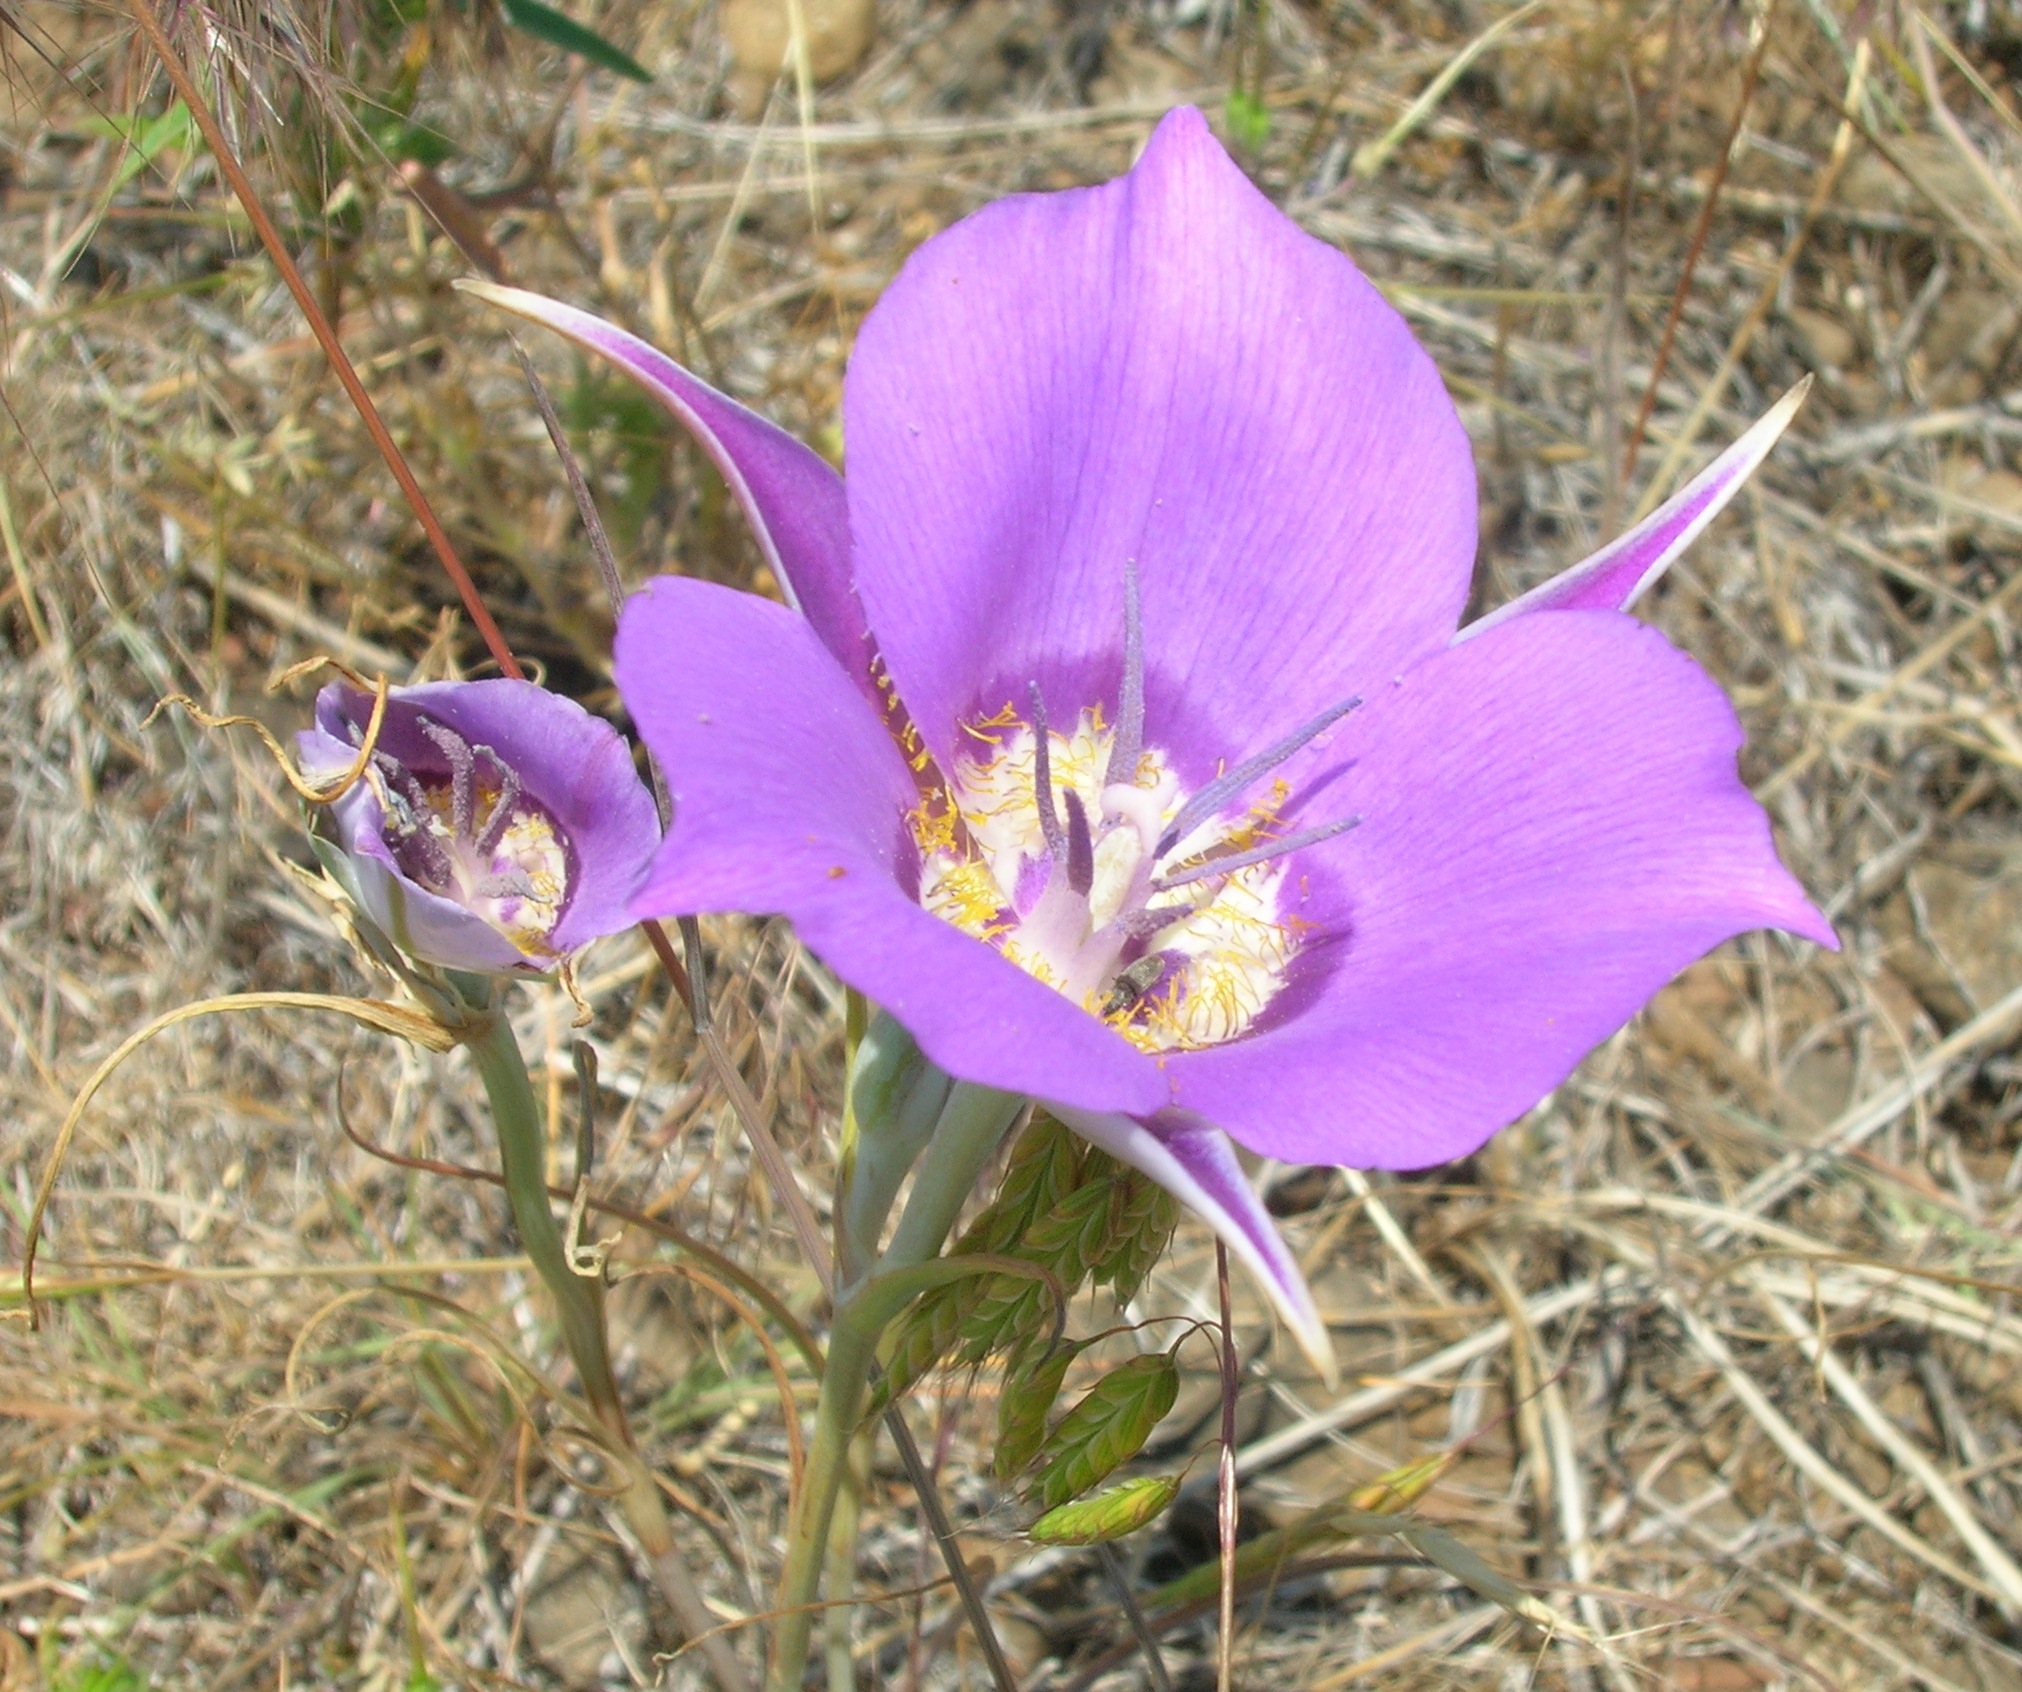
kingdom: Plantae
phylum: Tracheophyta
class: Liliopsida
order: Liliales
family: Liliaceae
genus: Calochortus
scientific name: Calochortus macrocarpus
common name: Green-band mariposa lily
